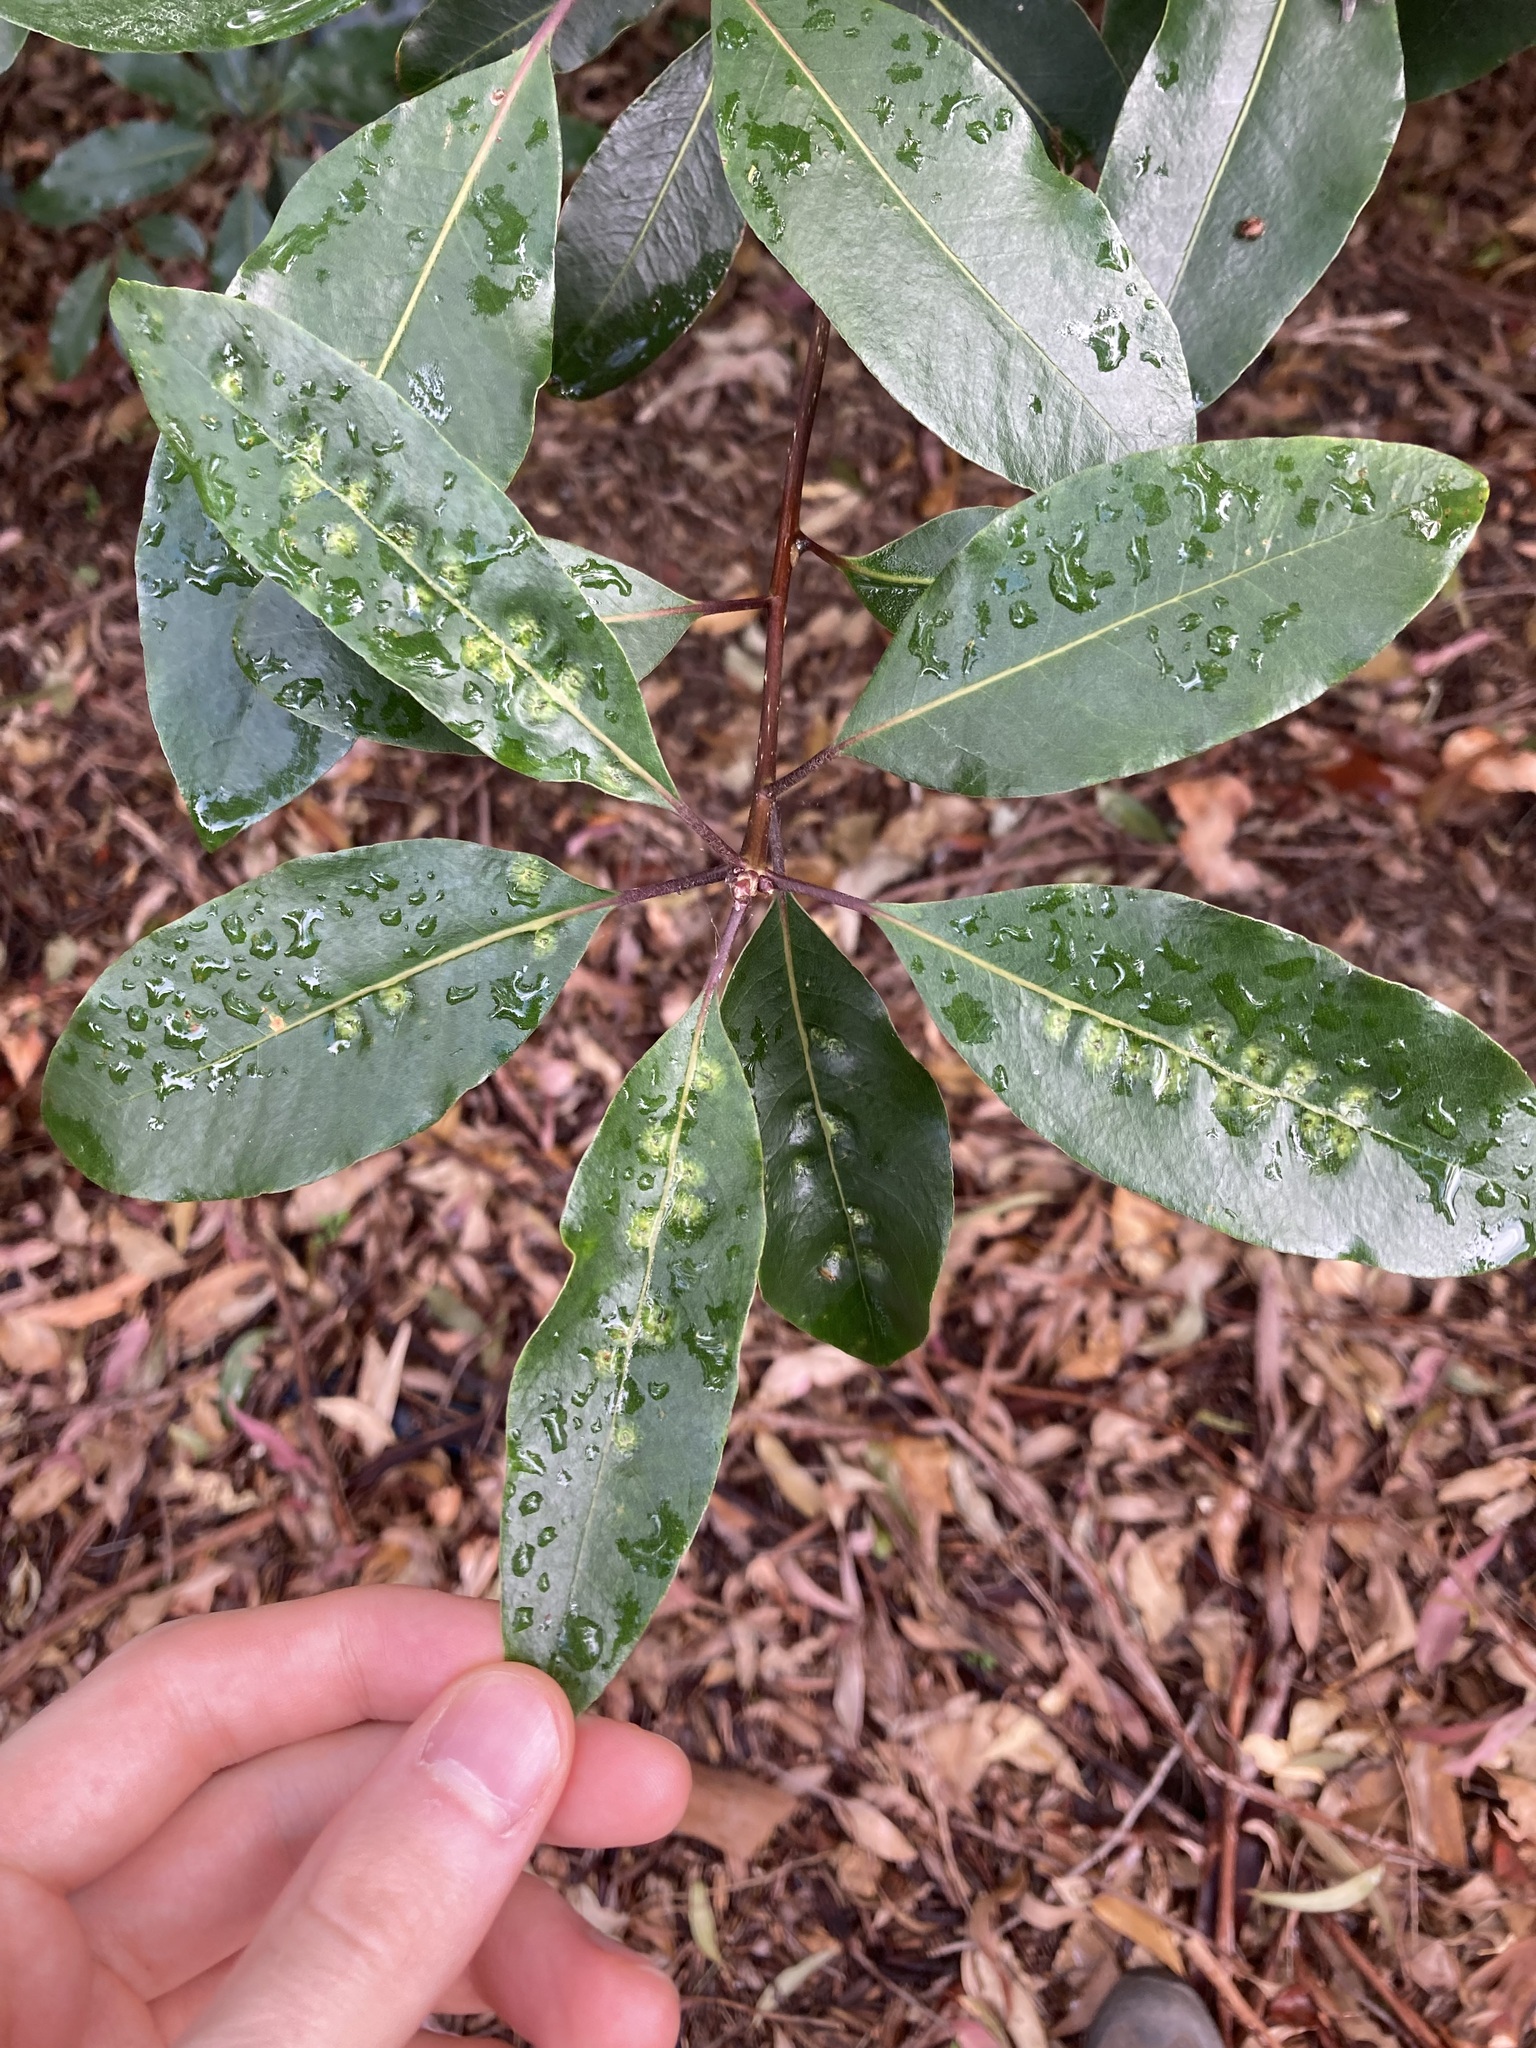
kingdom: Animalia
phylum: Arthropoda
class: Insecta
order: Diptera
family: Agromyzidae
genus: Phytoliriomyza
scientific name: Phytoliriomyza pittosporophylli
